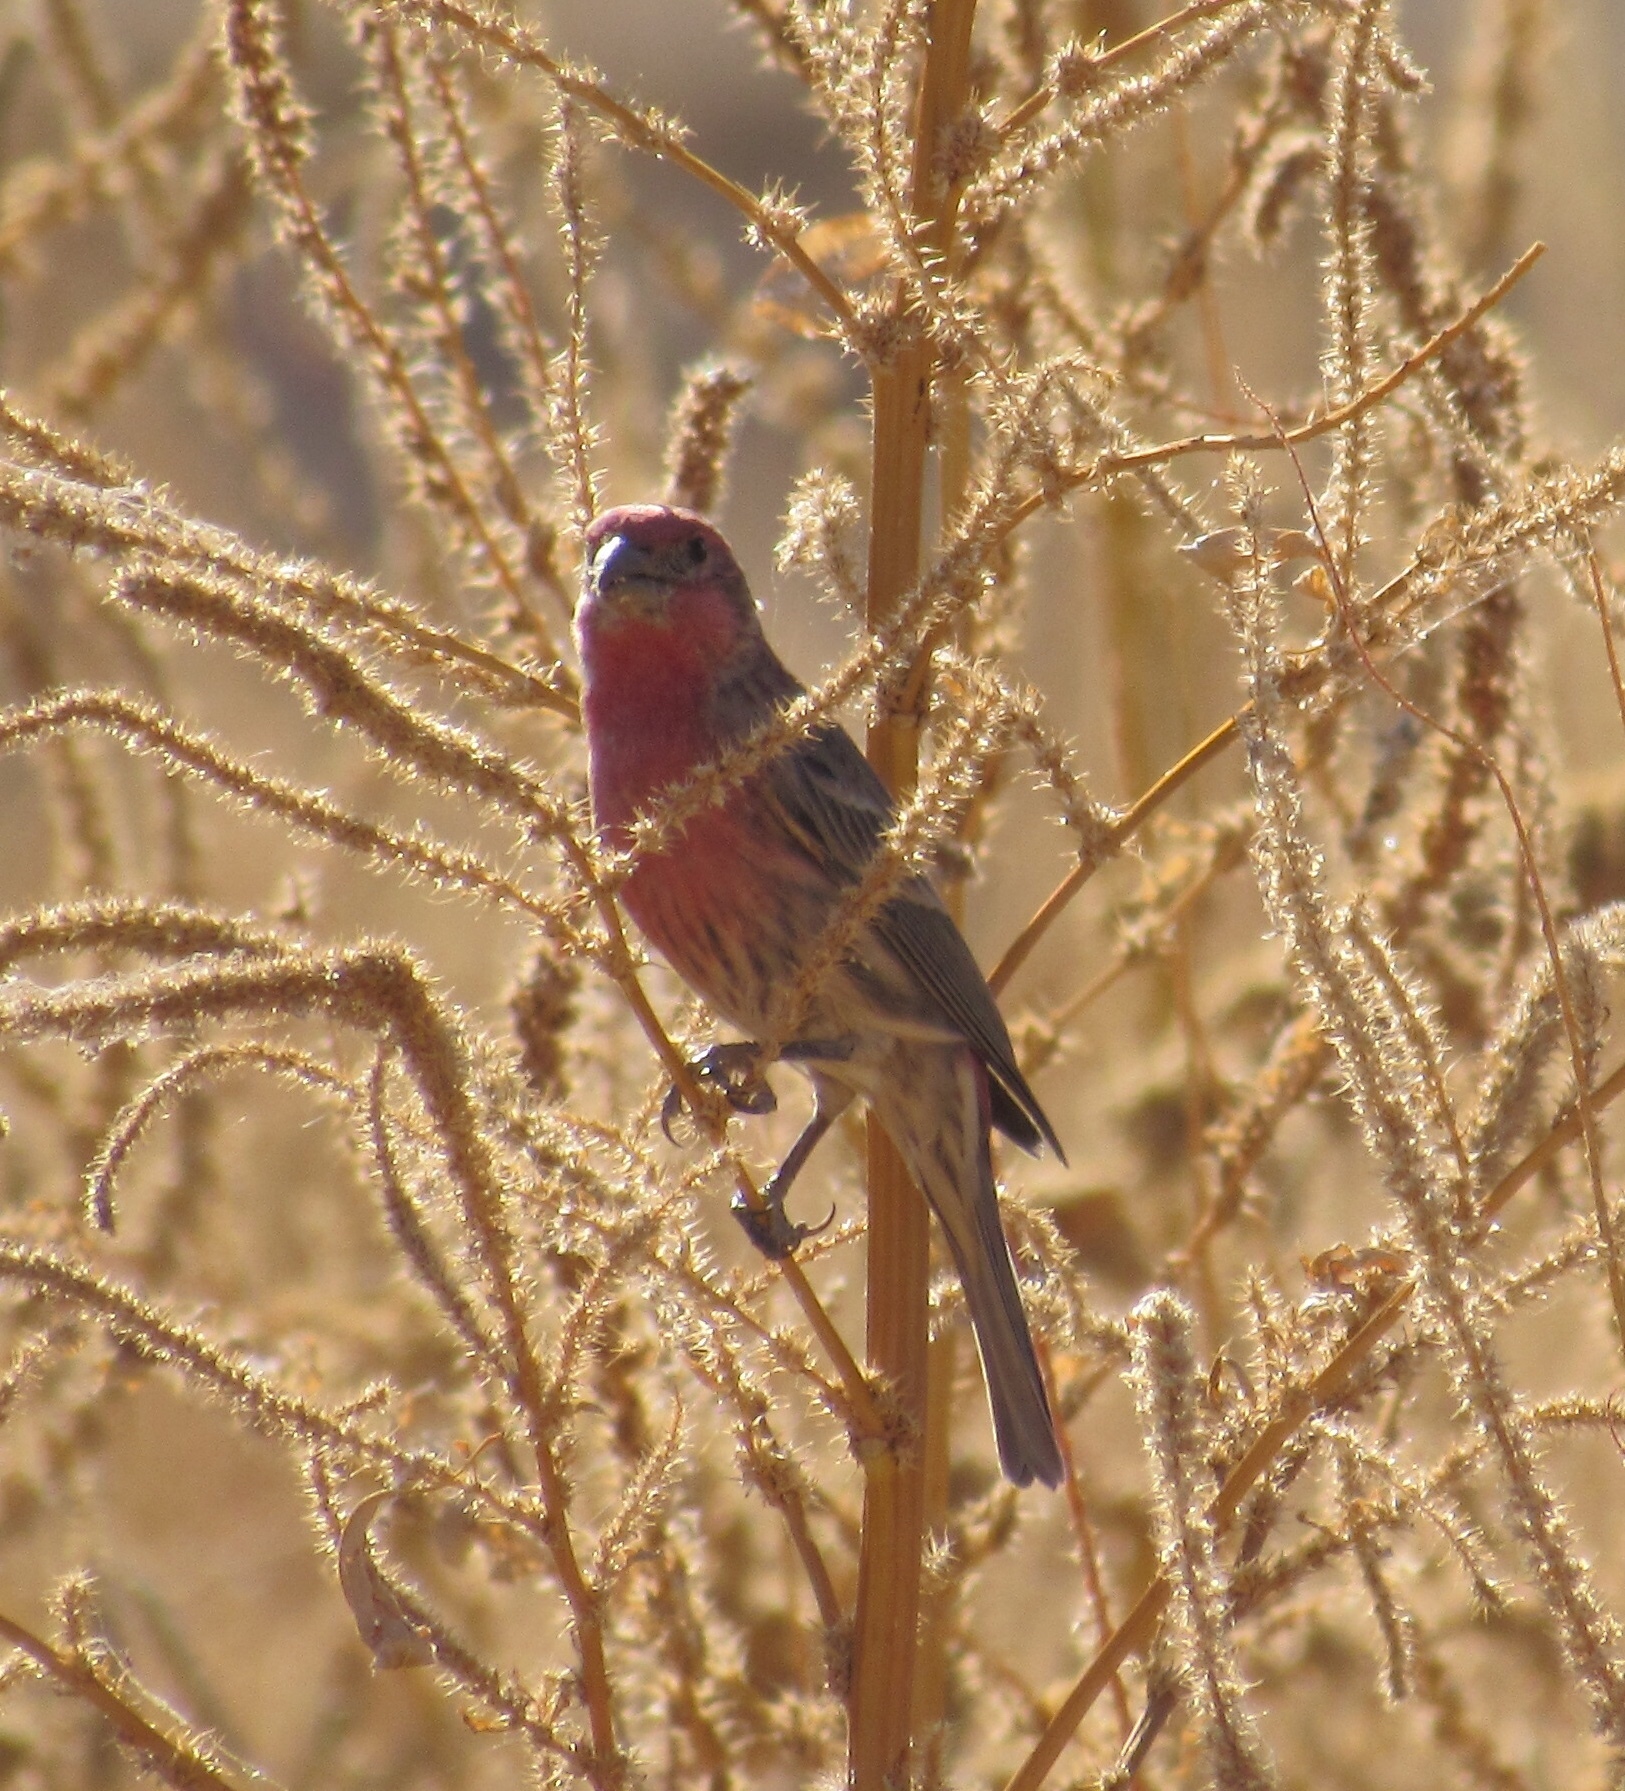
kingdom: Animalia
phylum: Chordata
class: Aves
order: Passeriformes
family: Fringillidae
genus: Haemorhous
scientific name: Haemorhous mexicanus
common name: House finch
